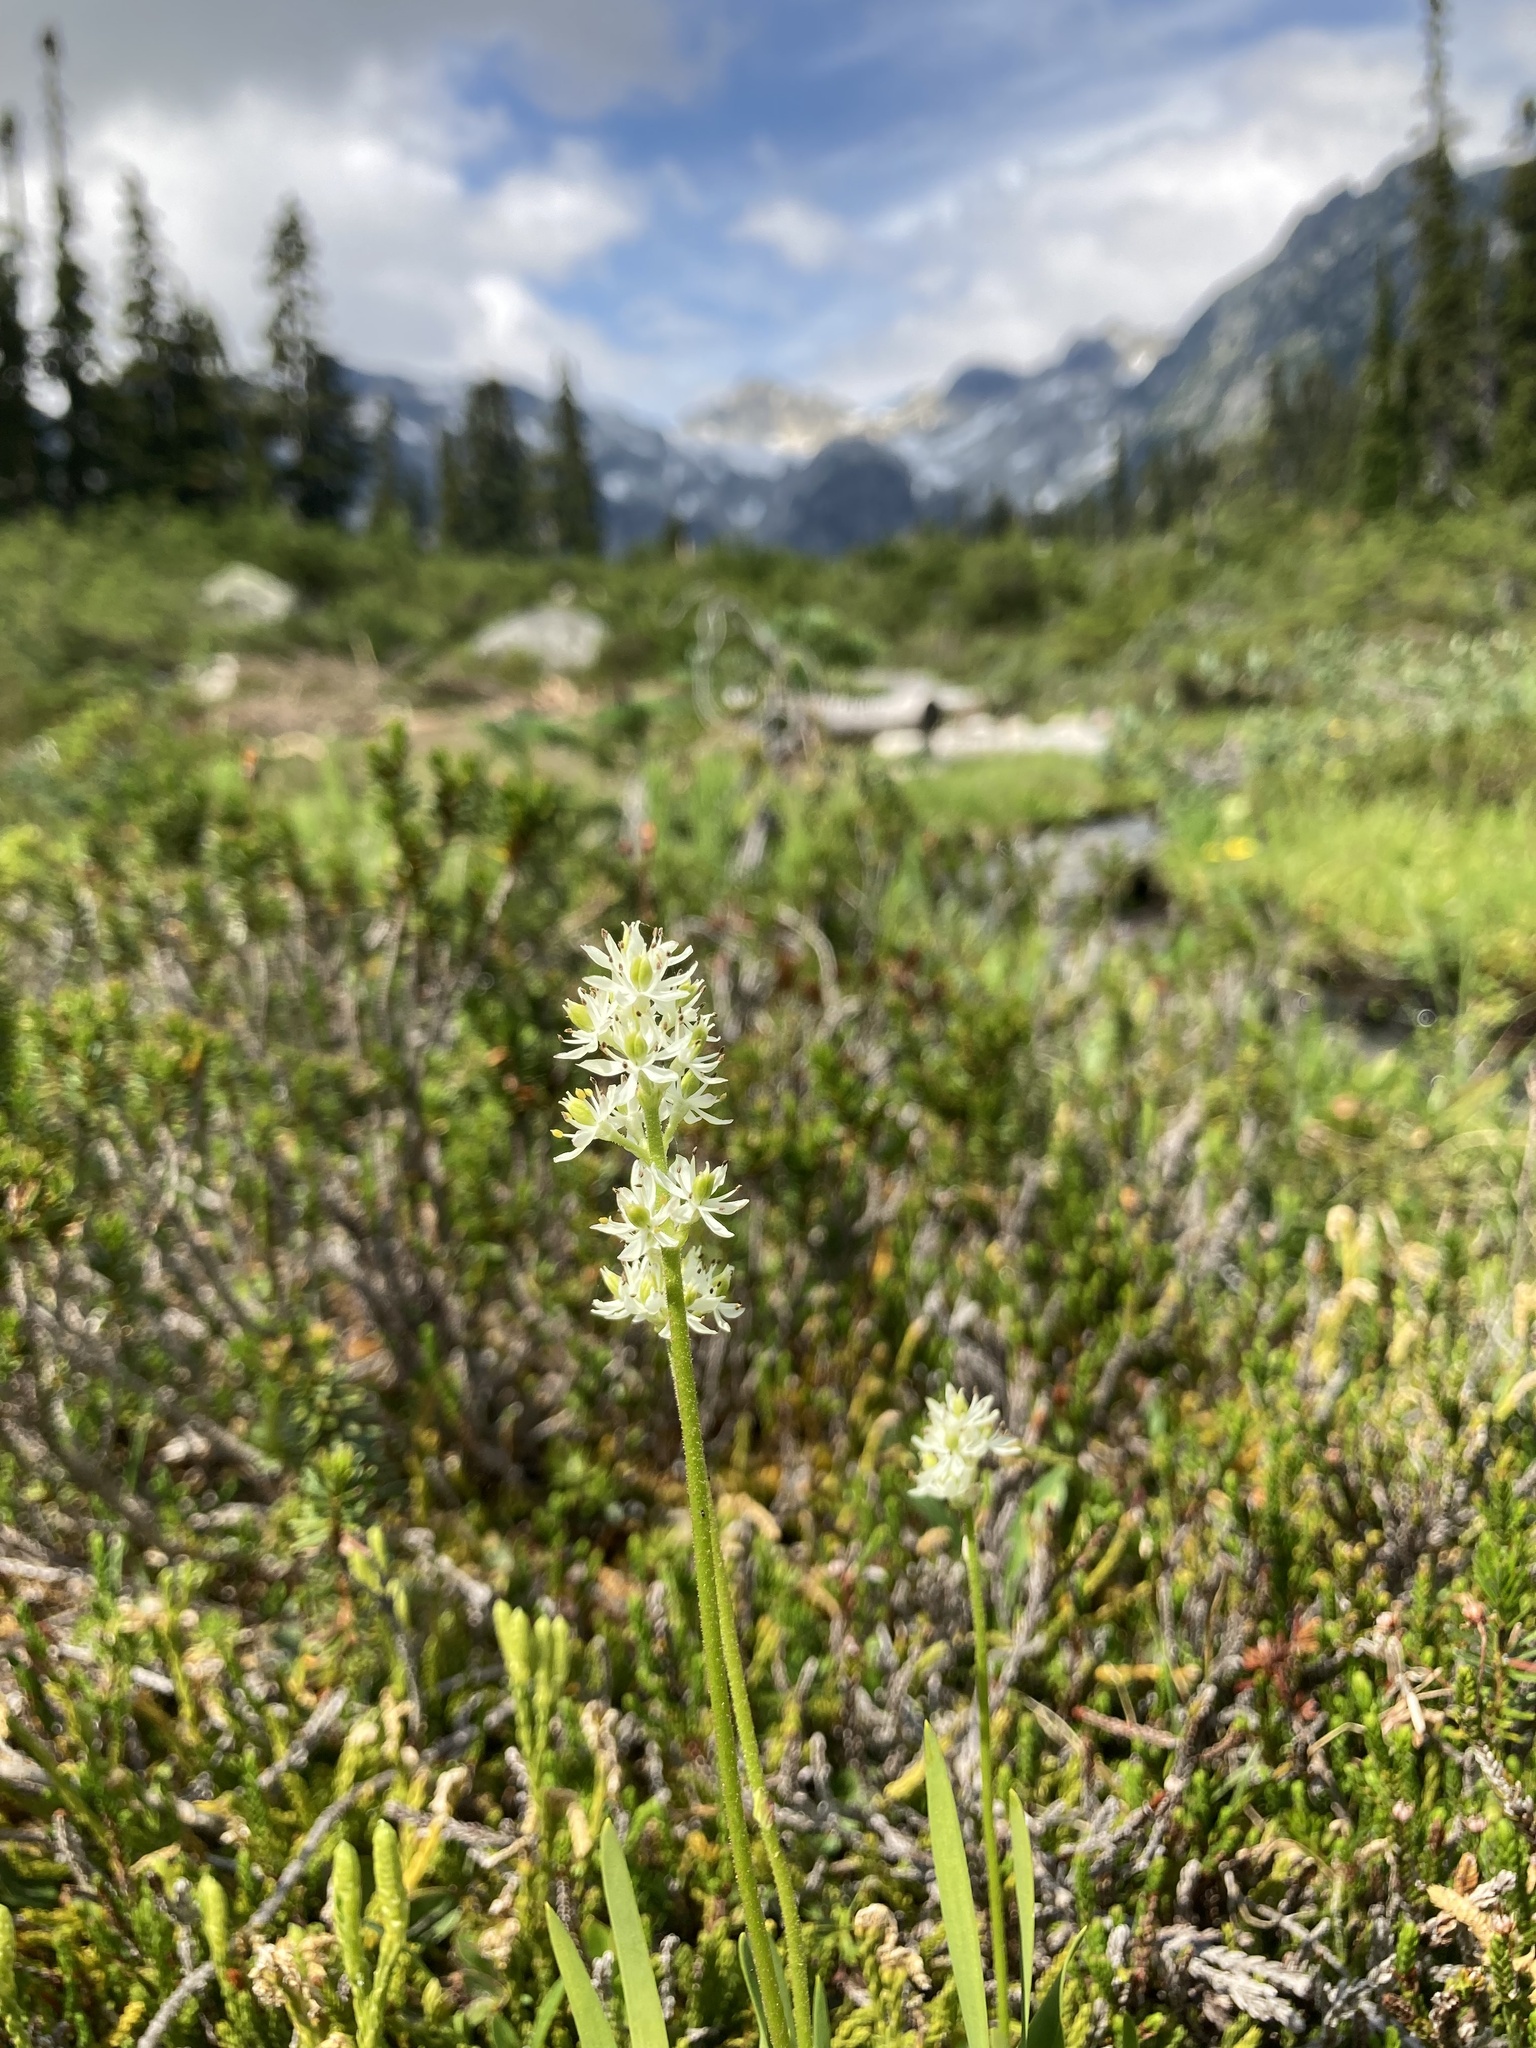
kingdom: Plantae
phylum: Tracheophyta
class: Liliopsida
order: Alismatales
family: Tofieldiaceae
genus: Triantha
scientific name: Triantha glutinosa
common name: Glutinous tofieldia
